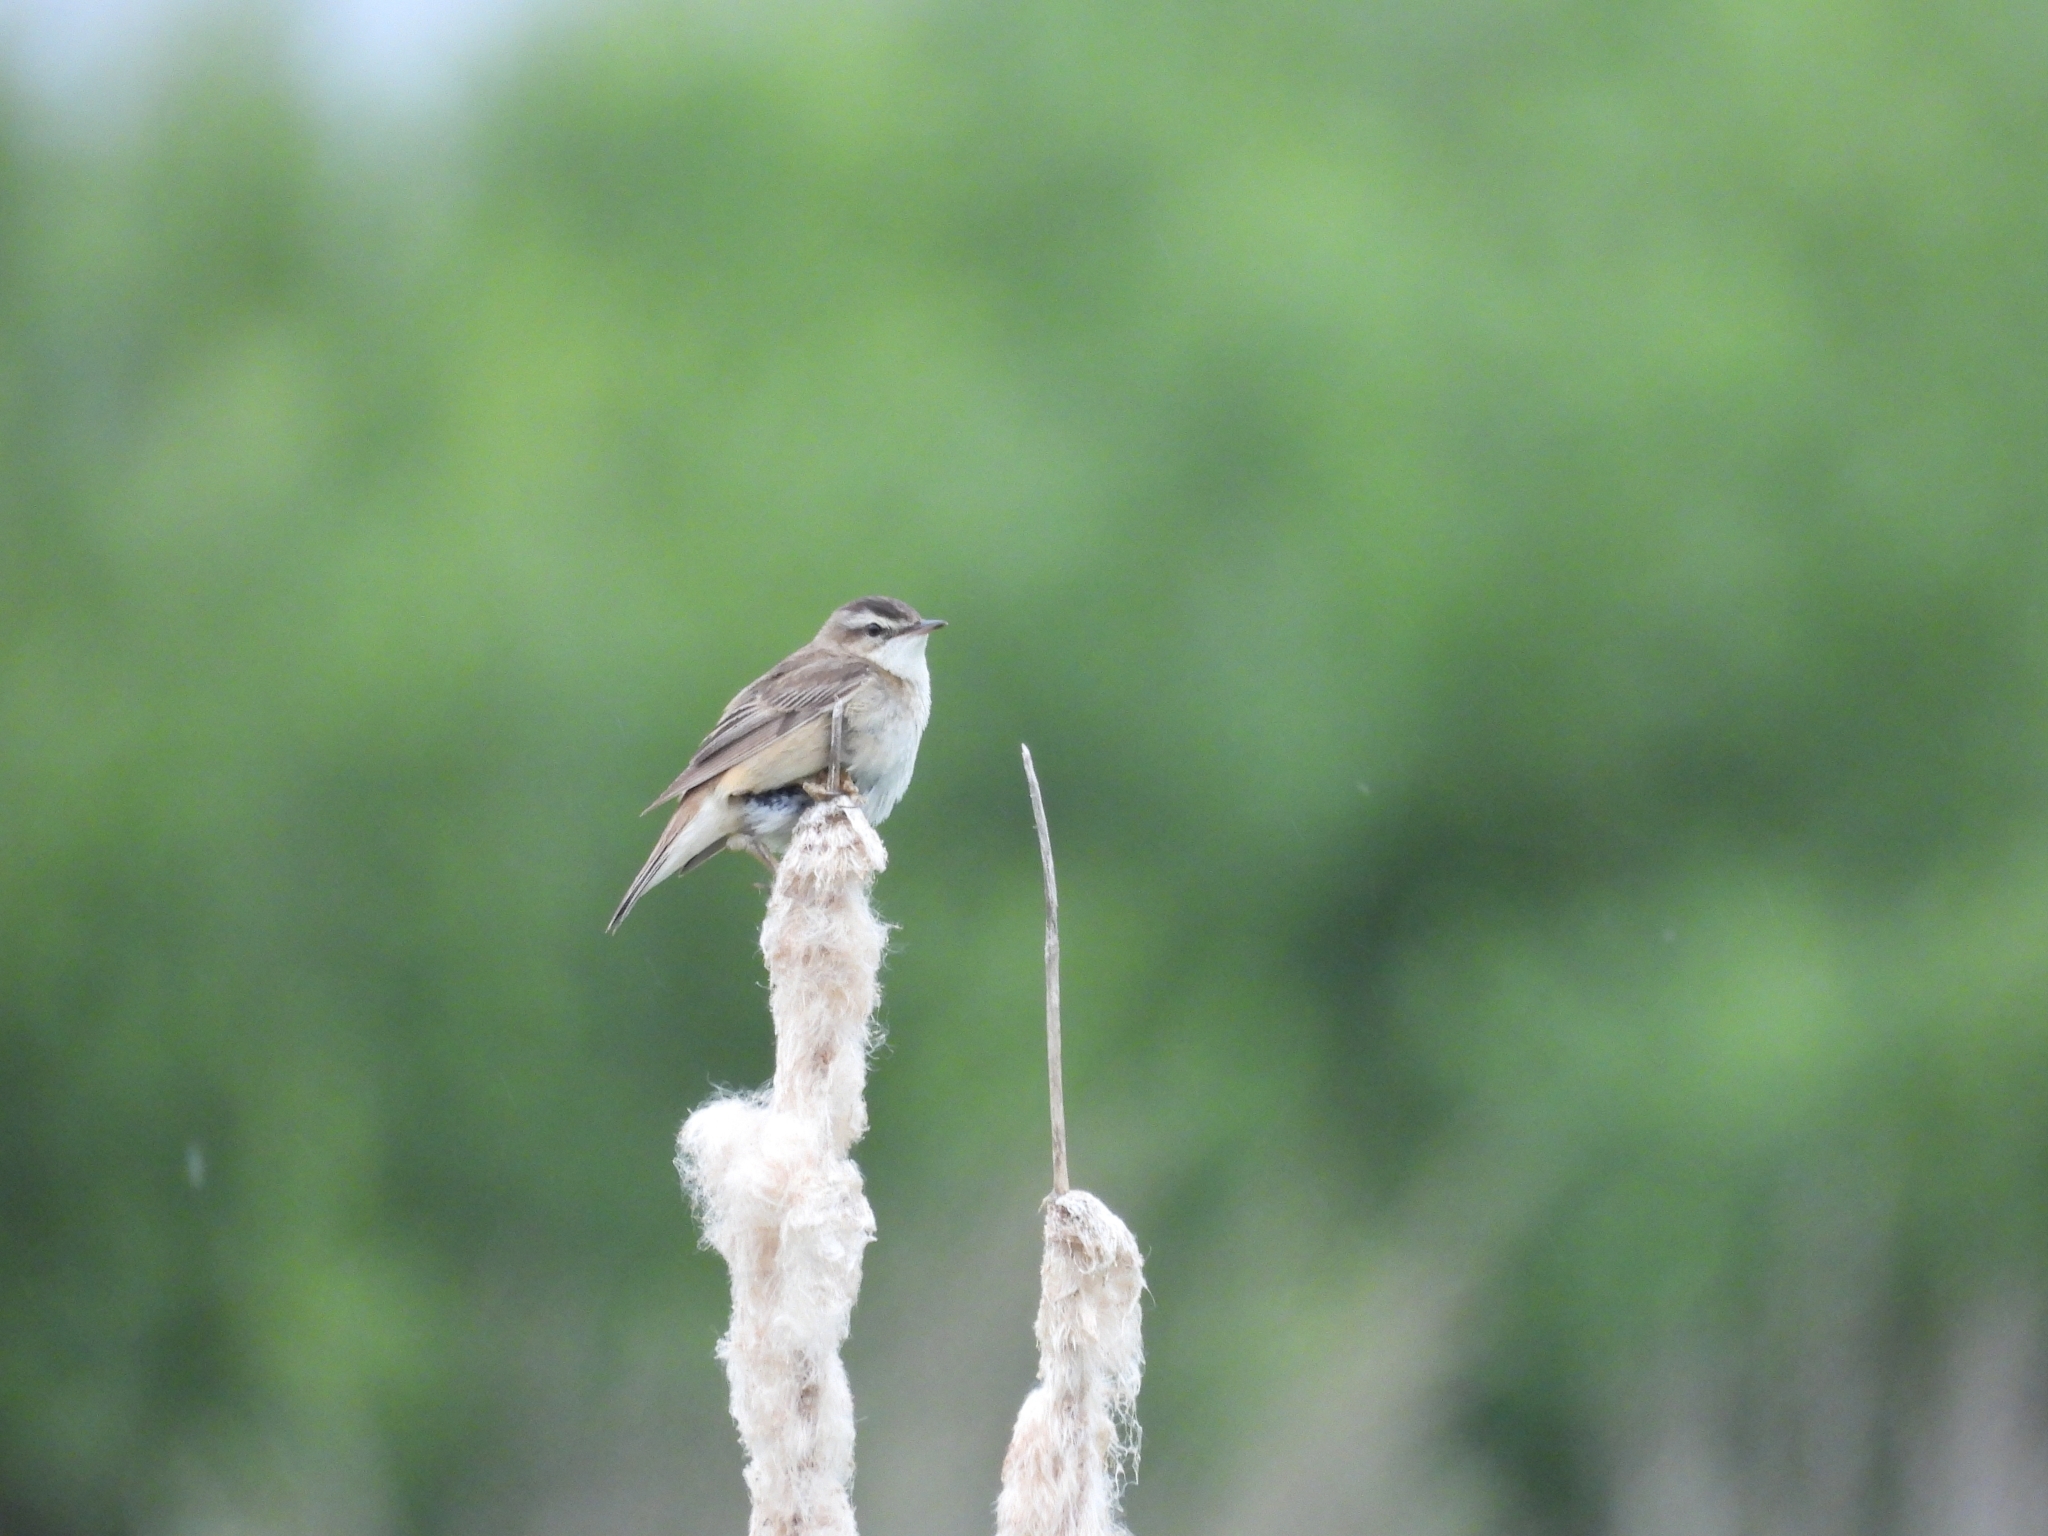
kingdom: Animalia
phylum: Chordata
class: Aves
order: Passeriformes
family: Acrocephalidae
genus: Acrocephalus
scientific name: Acrocephalus schoenobaenus
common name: Sedge warbler
